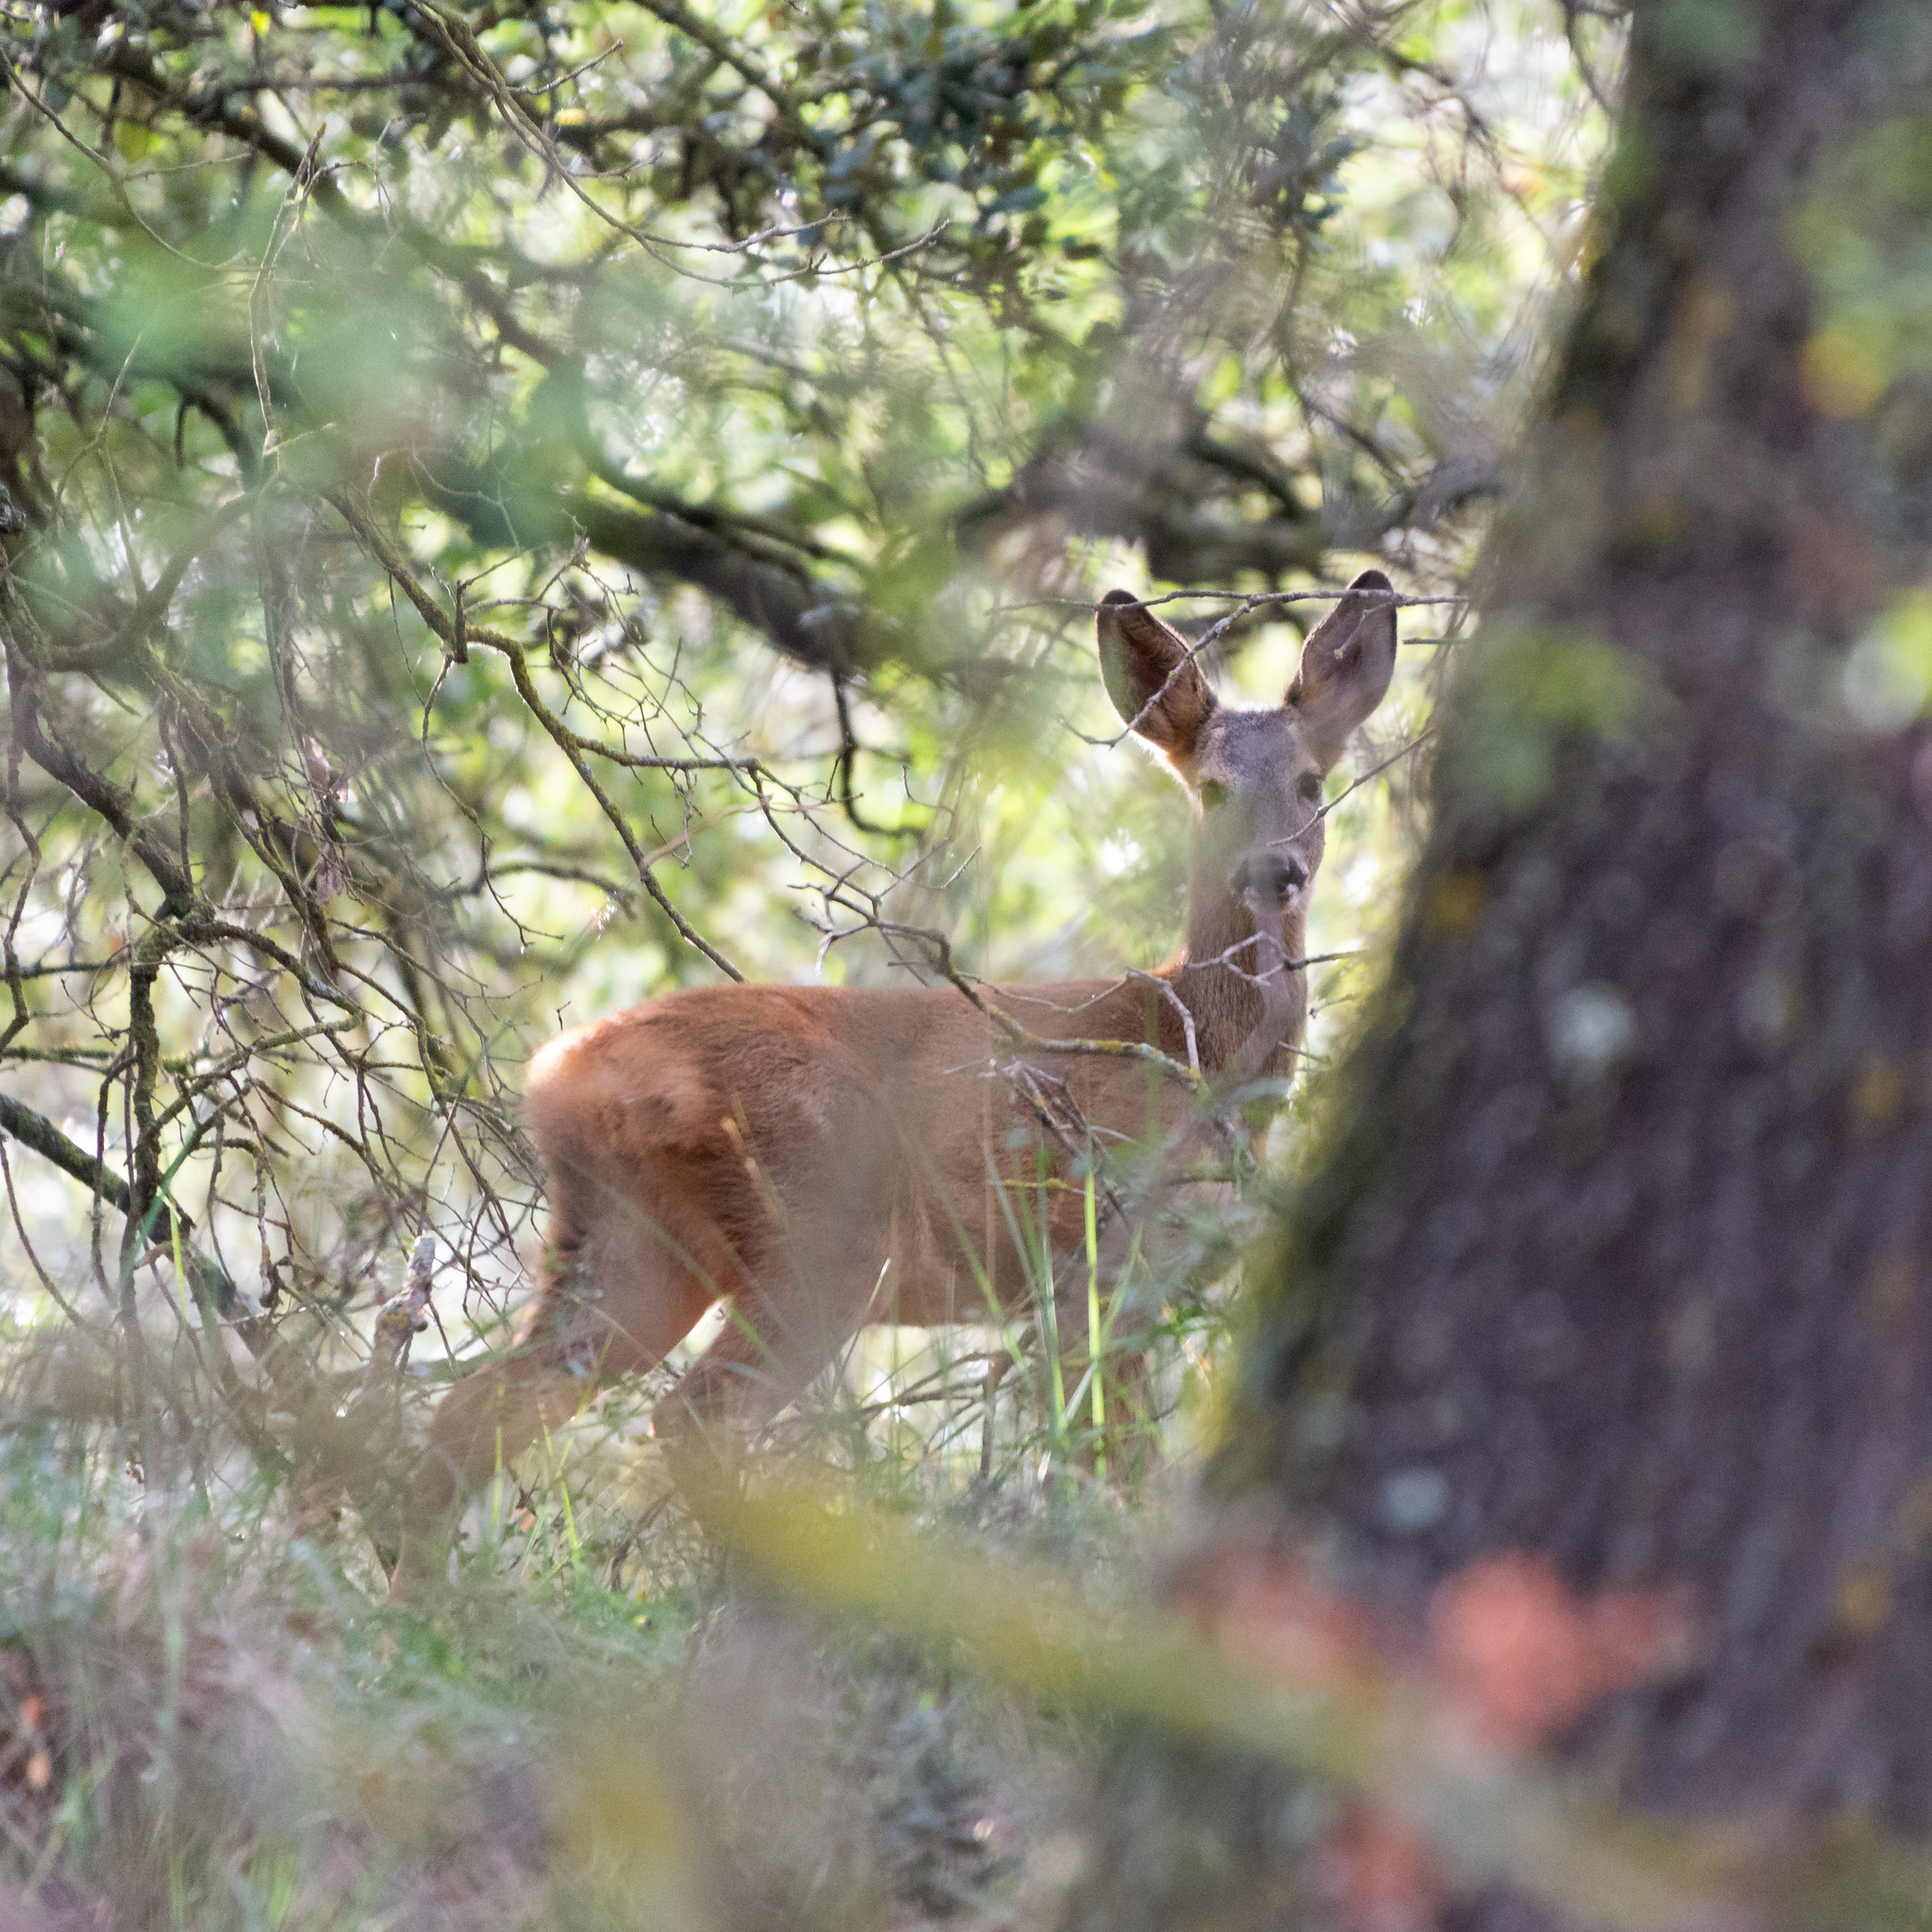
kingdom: Animalia
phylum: Chordata
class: Mammalia
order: Artiodactyla
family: Cervidae
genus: Capreolus
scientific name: Capreolus capreolus
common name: Western roe deer
